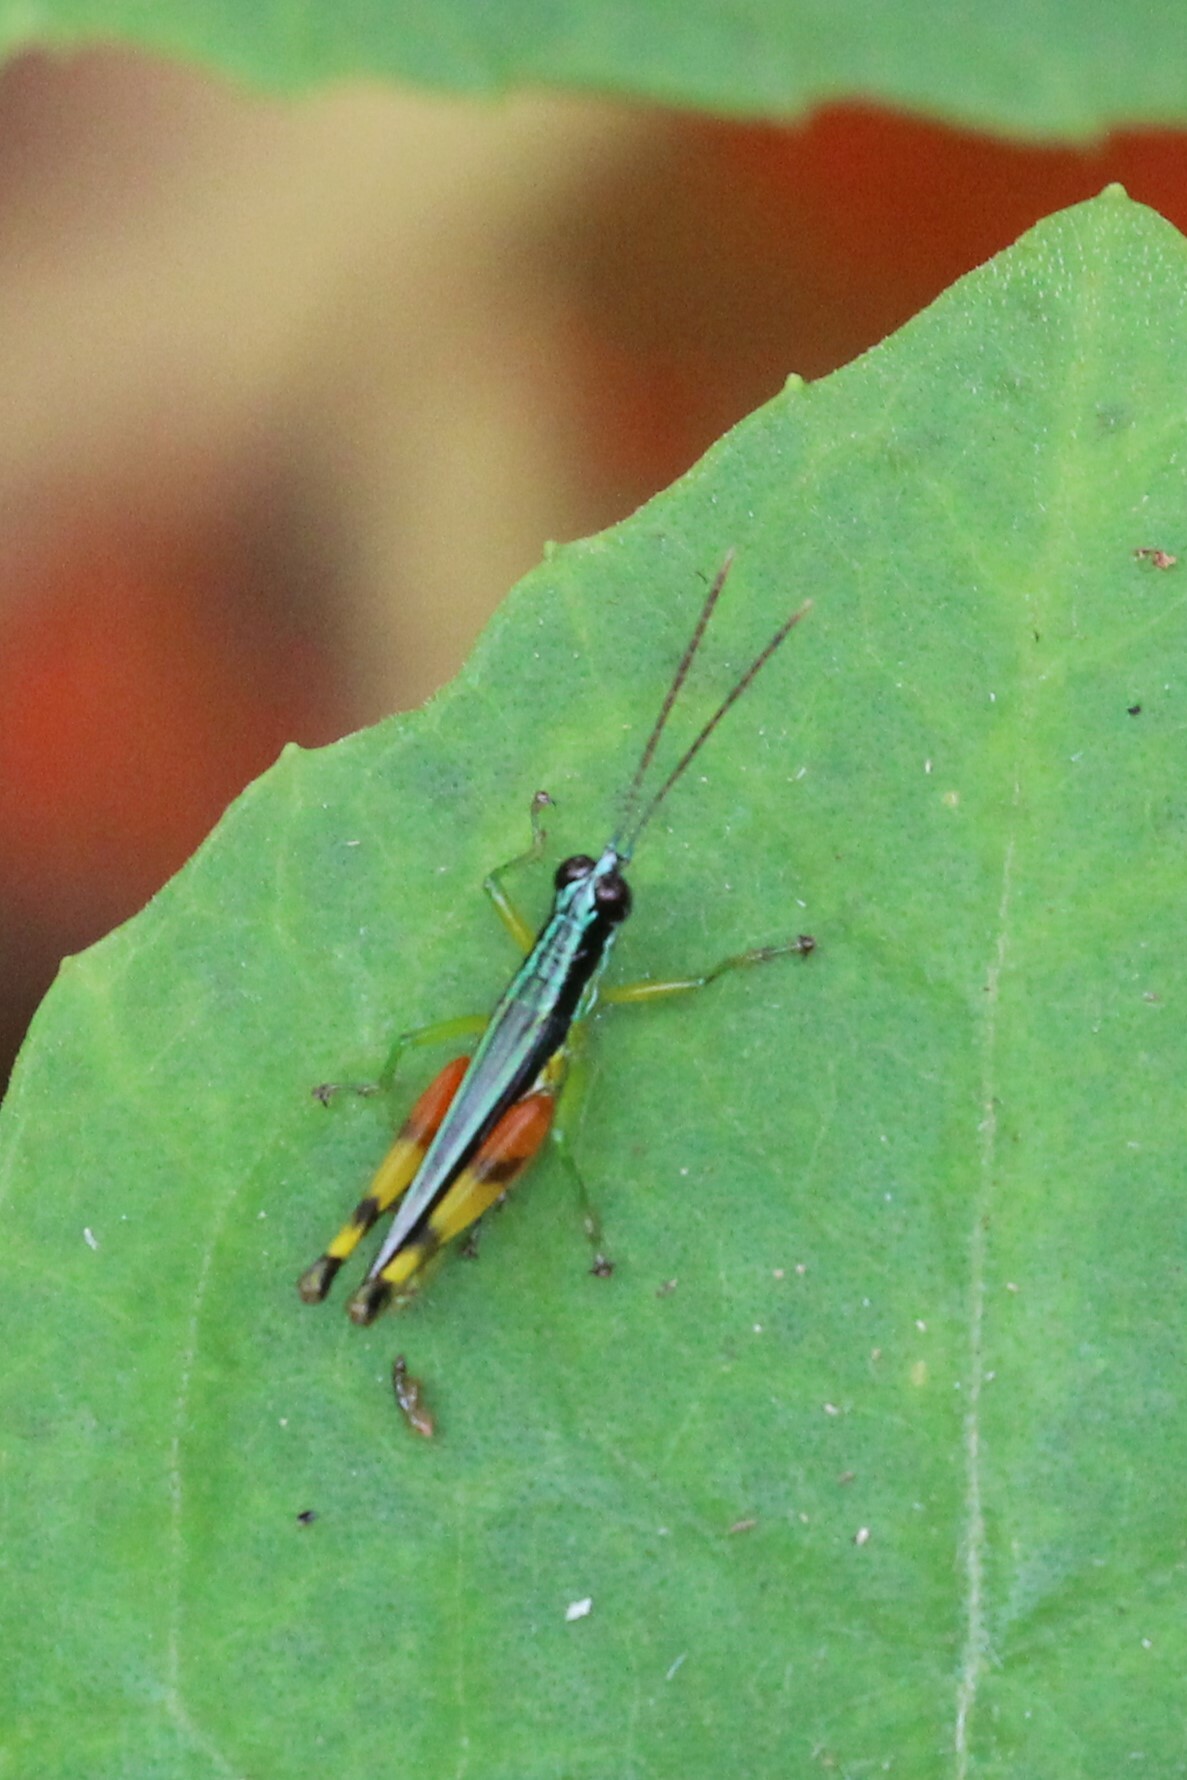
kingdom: Animalia
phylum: Arthropoda
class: Insecta
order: Orthoptera
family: Acrididae
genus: Stenopola
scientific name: Stenopola boliviana
